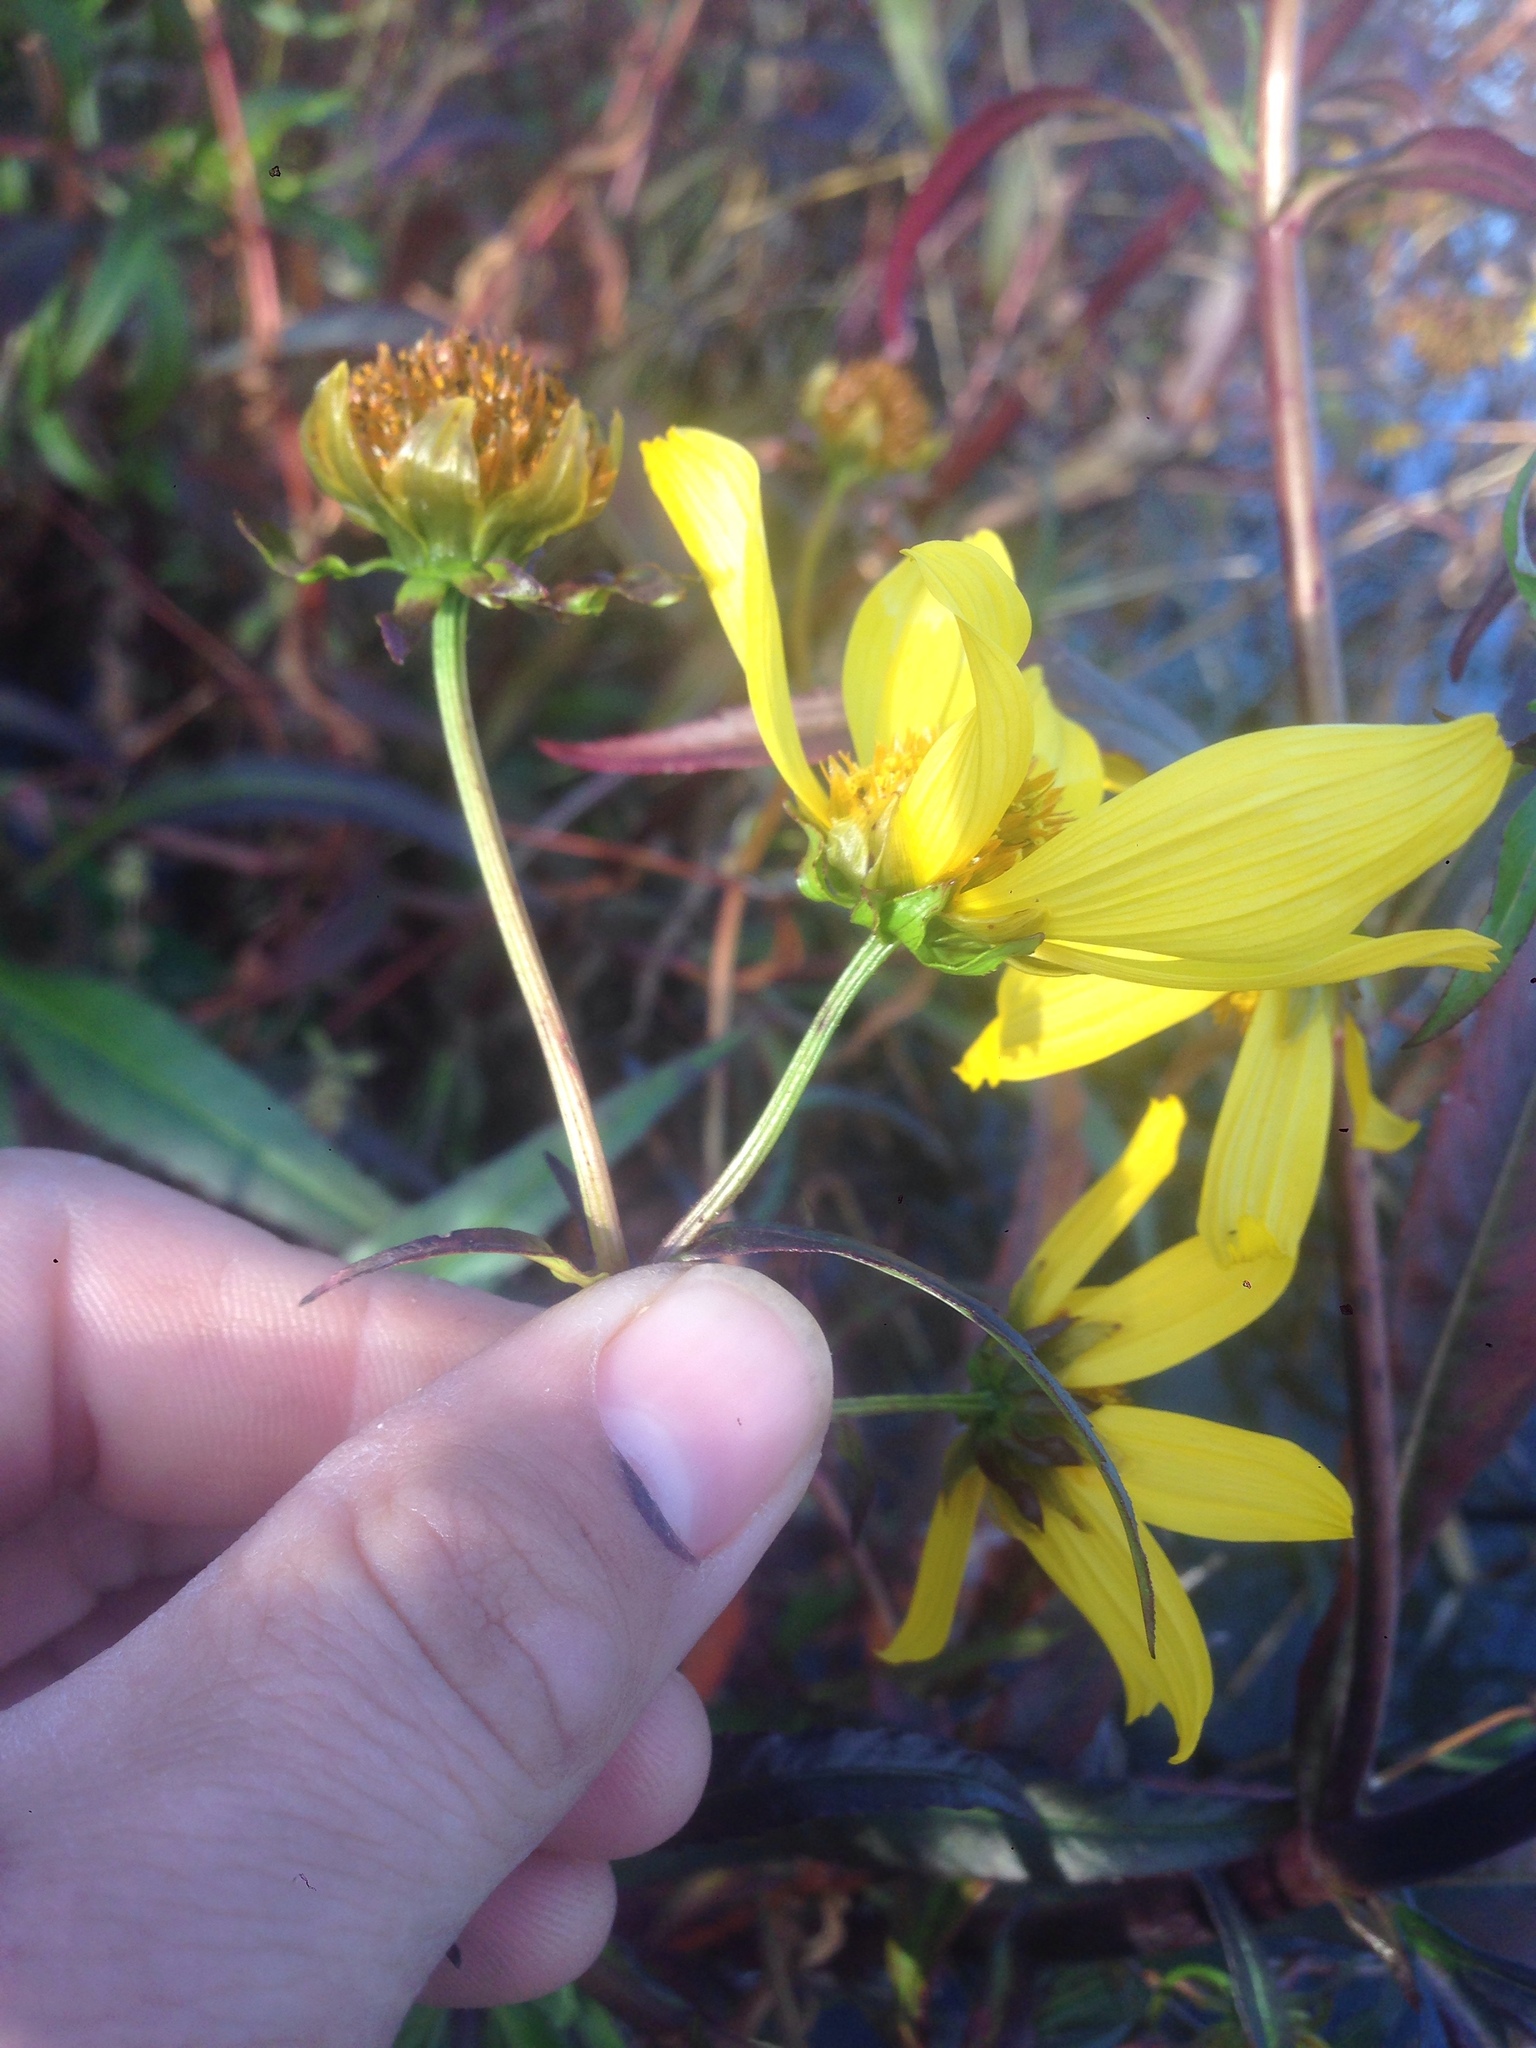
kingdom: Plantae
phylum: Tracheophyta
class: Magnoliopsida
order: Asterales
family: Asteraceae
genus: Bidens
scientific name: Bidens laevis
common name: Larger bur-marigold
